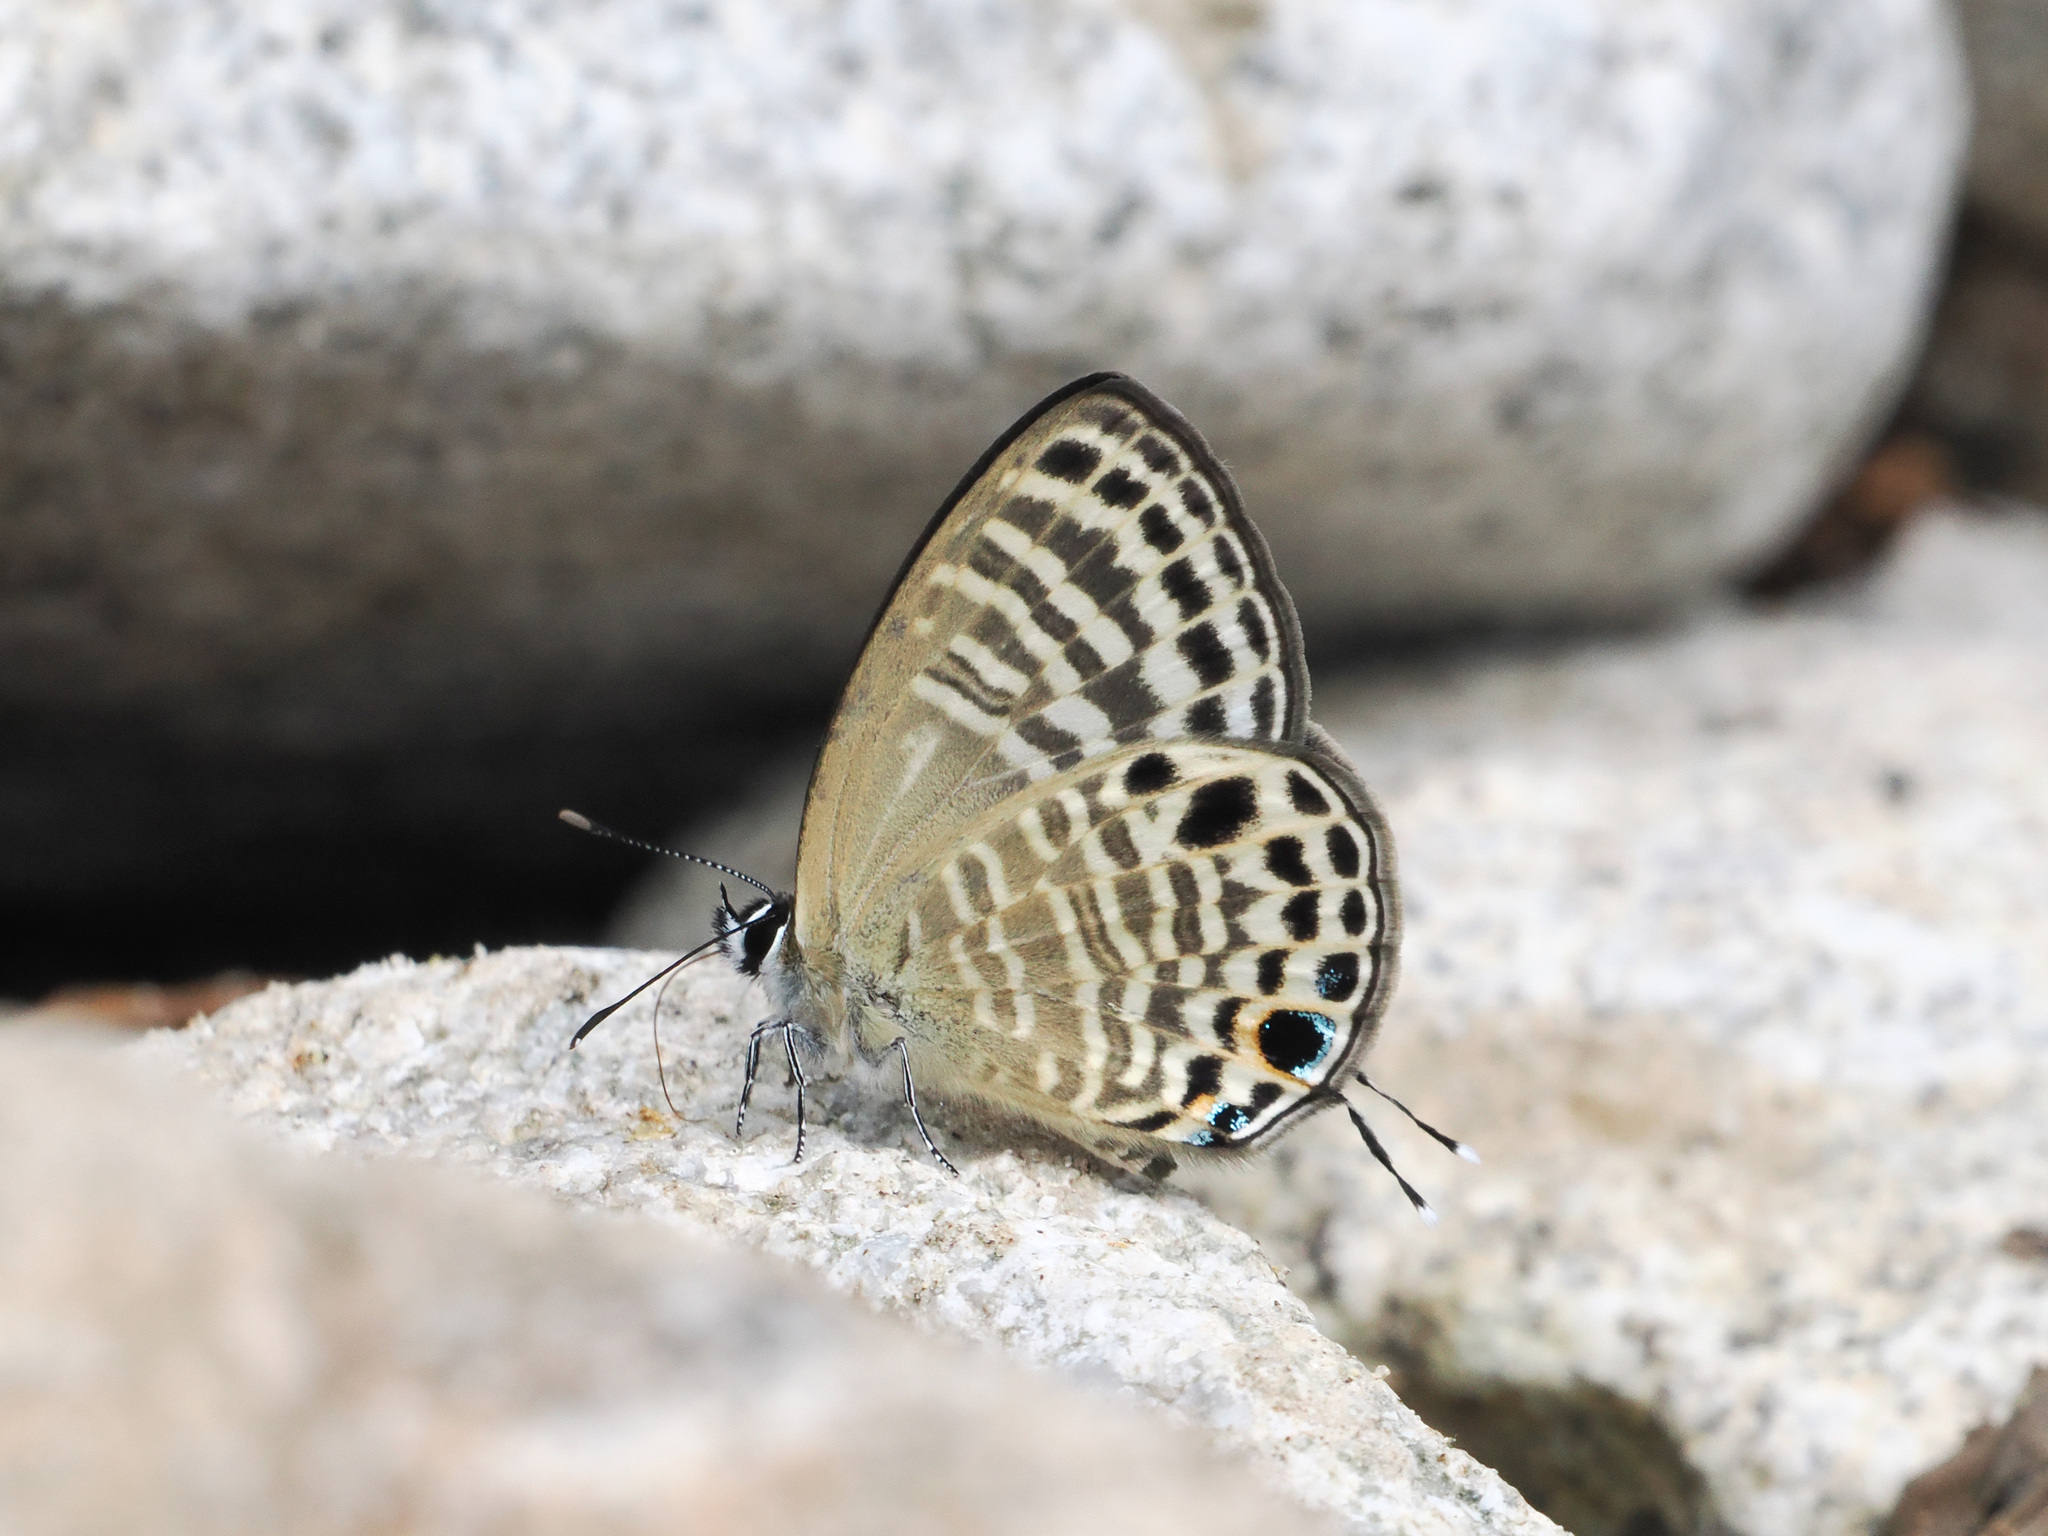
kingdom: Animalia
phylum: Arthropoda
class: Insecta
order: Lepidoptera
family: Lycaenidae
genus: Nacaduba
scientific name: Nacaduba angusta
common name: White four-line blue
